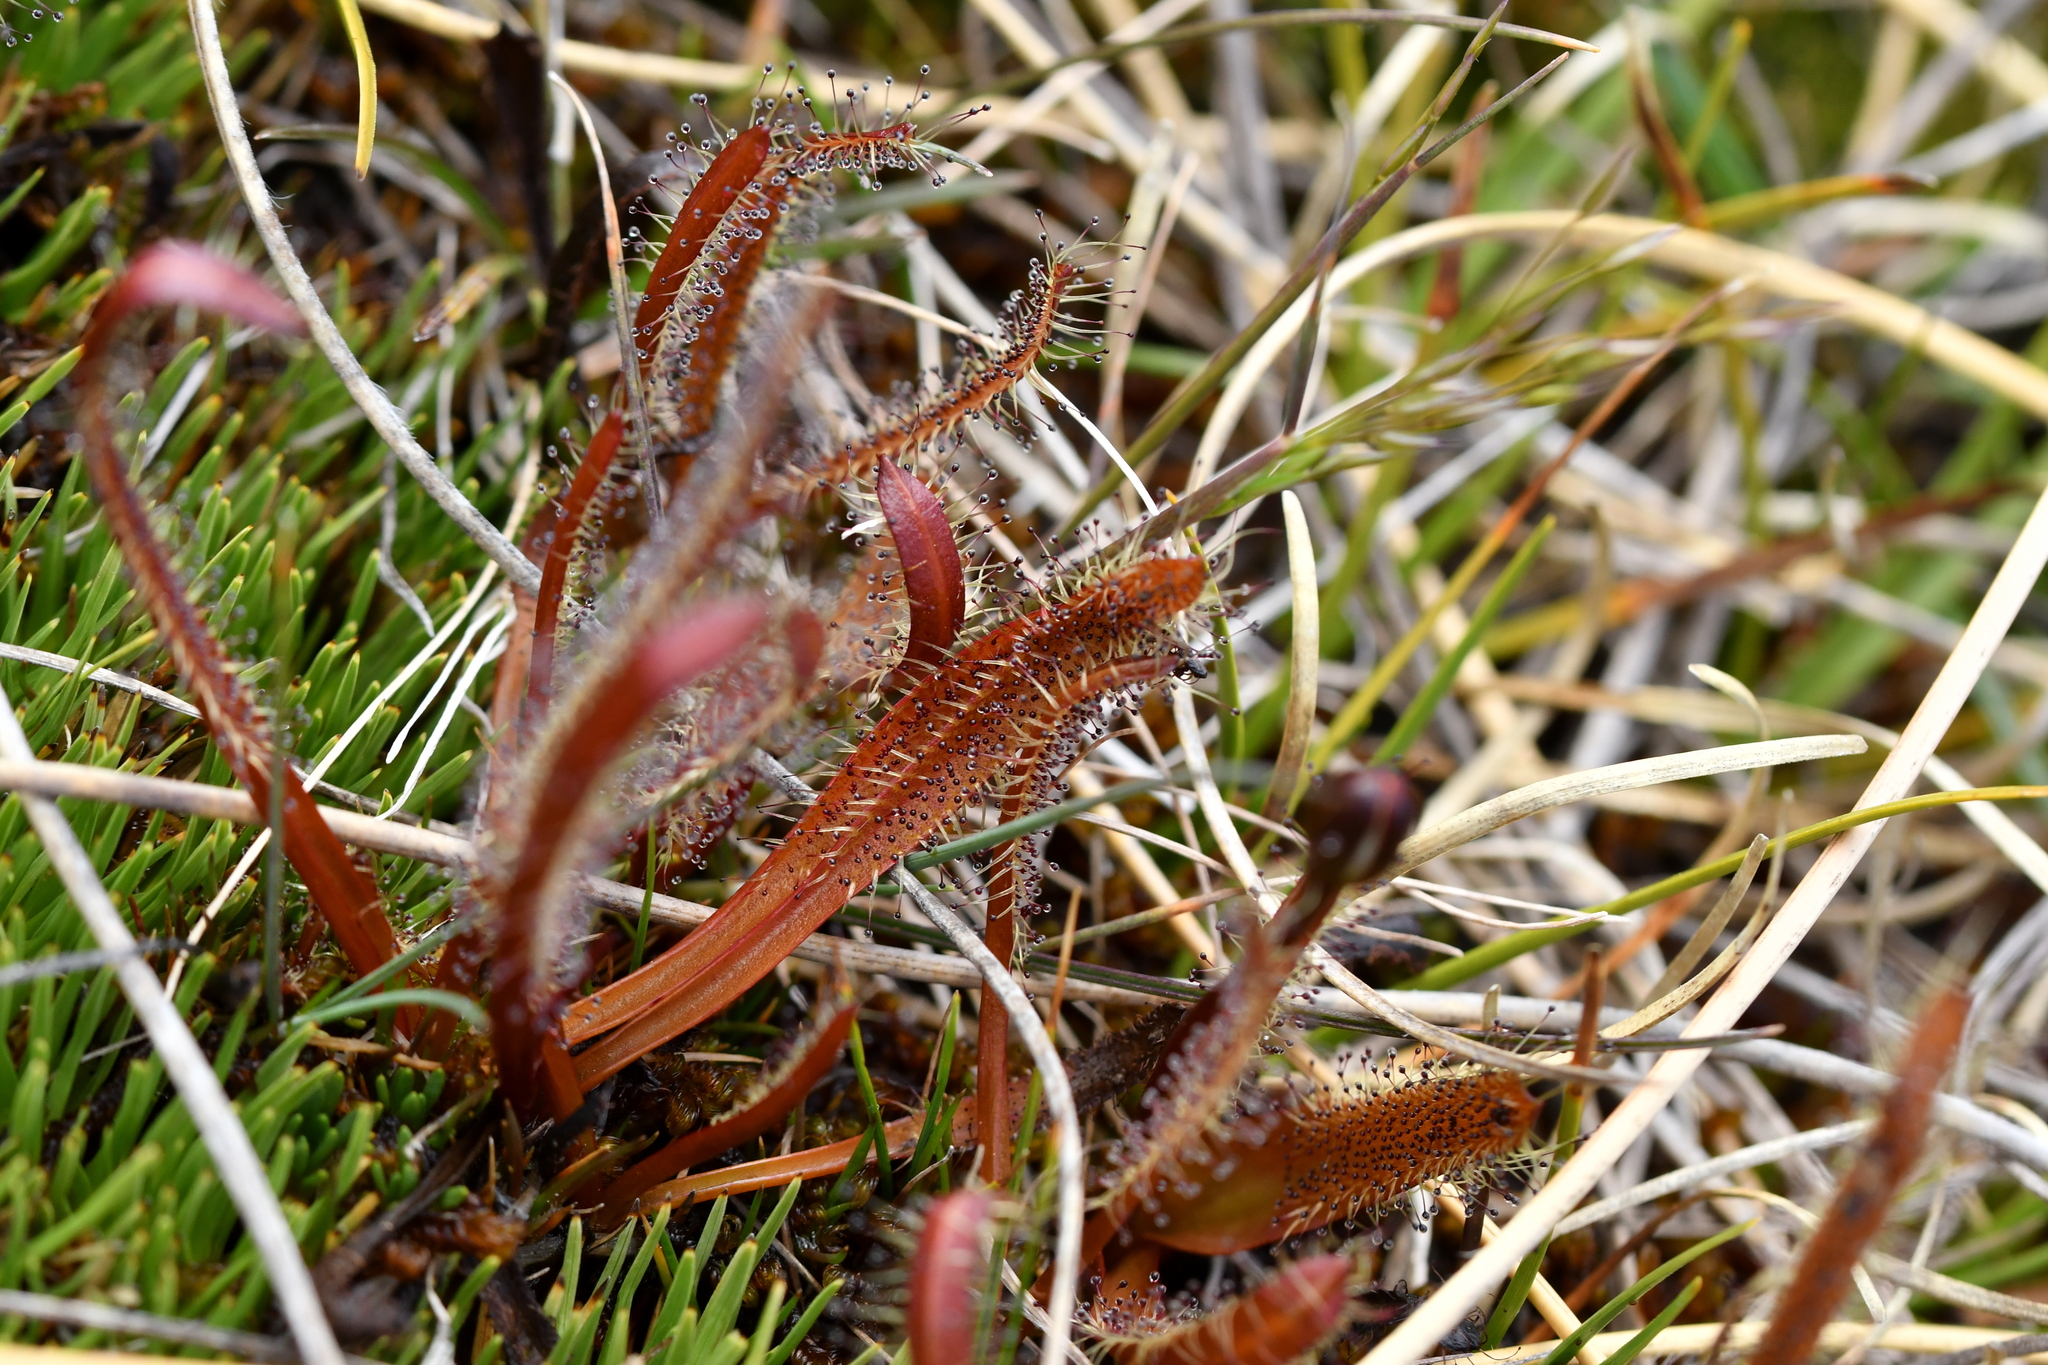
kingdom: Plantae
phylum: Tracheophyta
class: Magnoliopsida
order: Caryophyllales
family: Droseraceae
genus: Drosera
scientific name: Drosera arcturi
